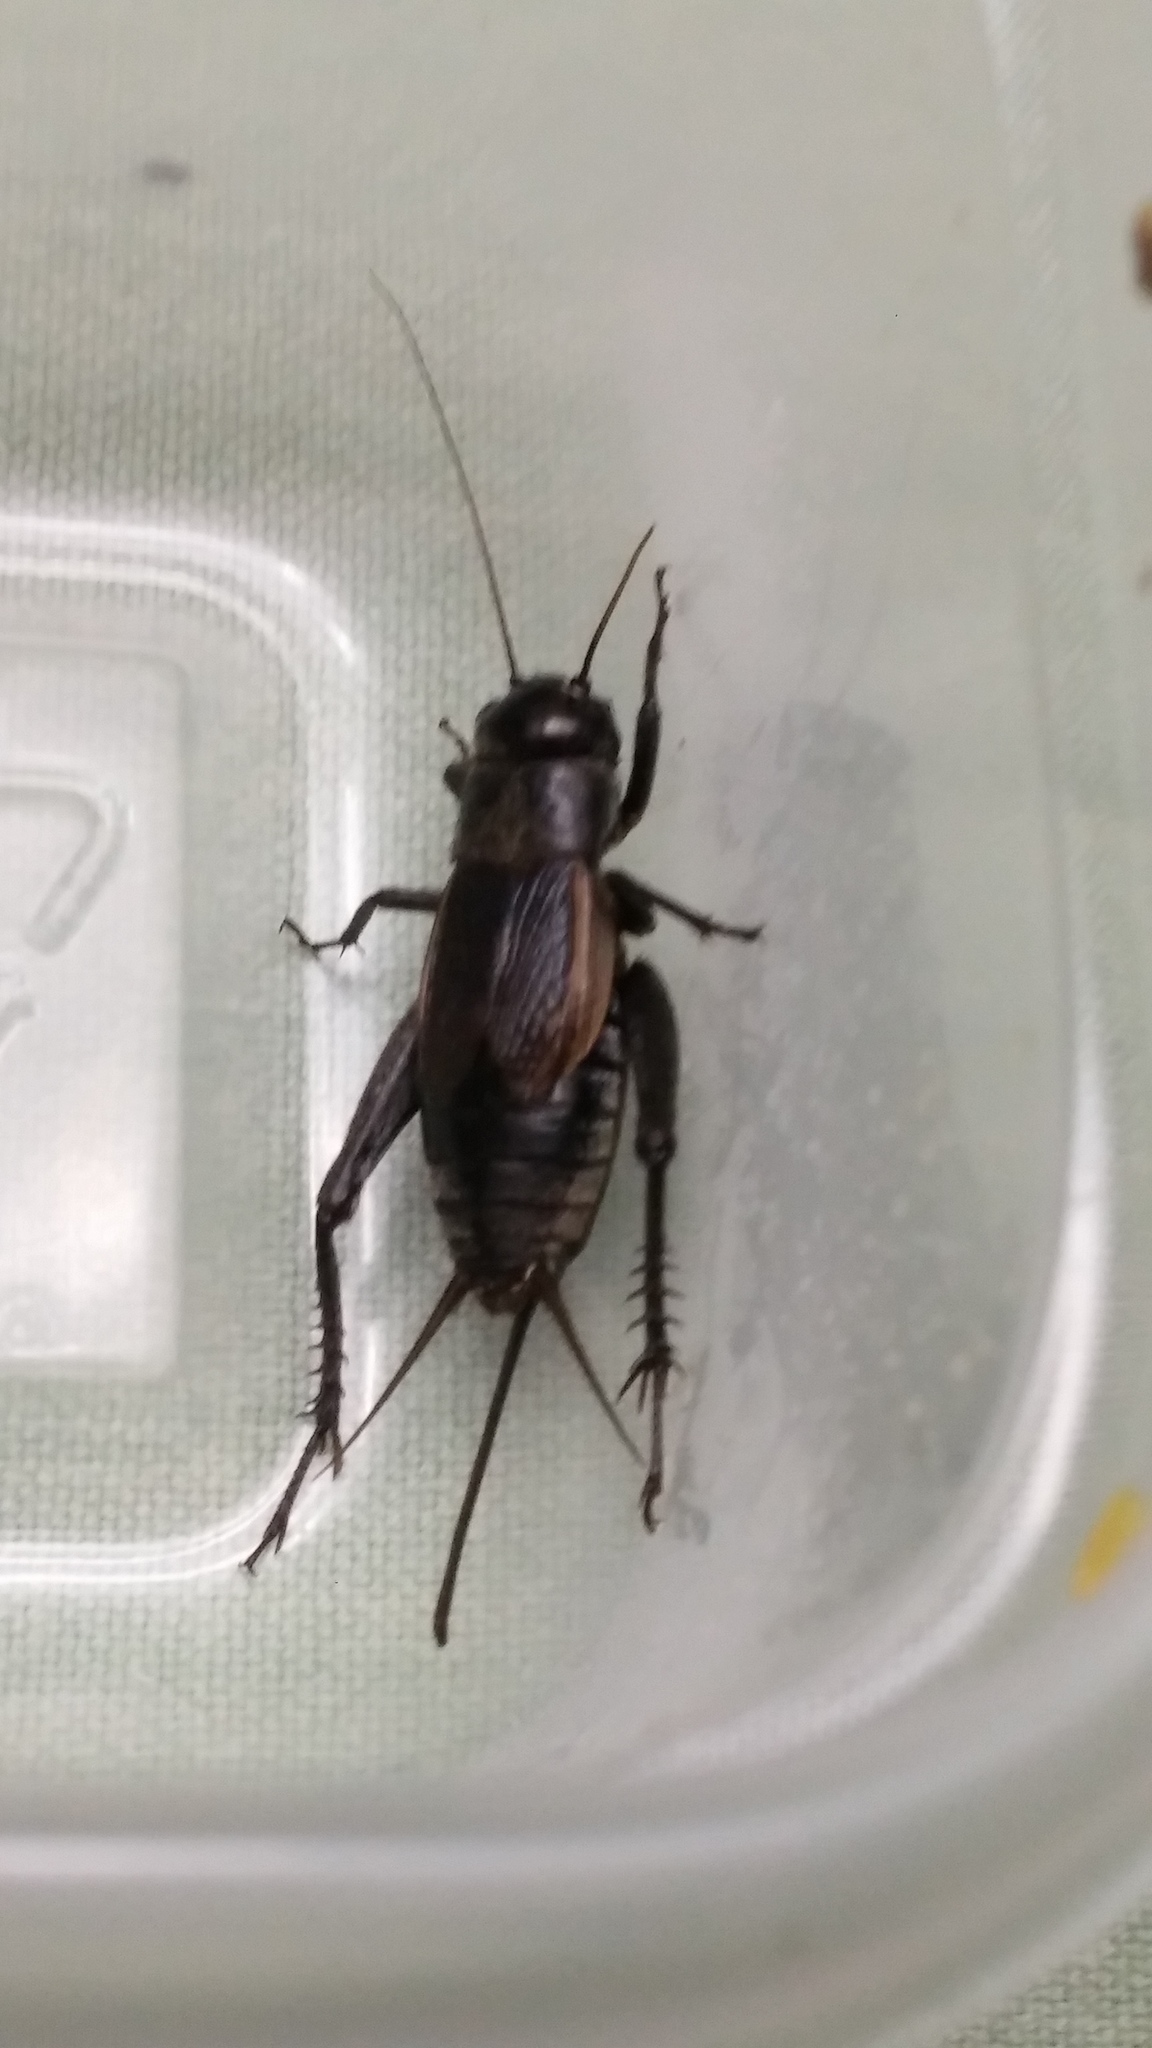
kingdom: Animalia
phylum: Arthropoda
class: Insecta
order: Orthoptera
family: Gryllidae
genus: Gryllus
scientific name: Gryllus pennsylvanicus
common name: Fall field cricket
